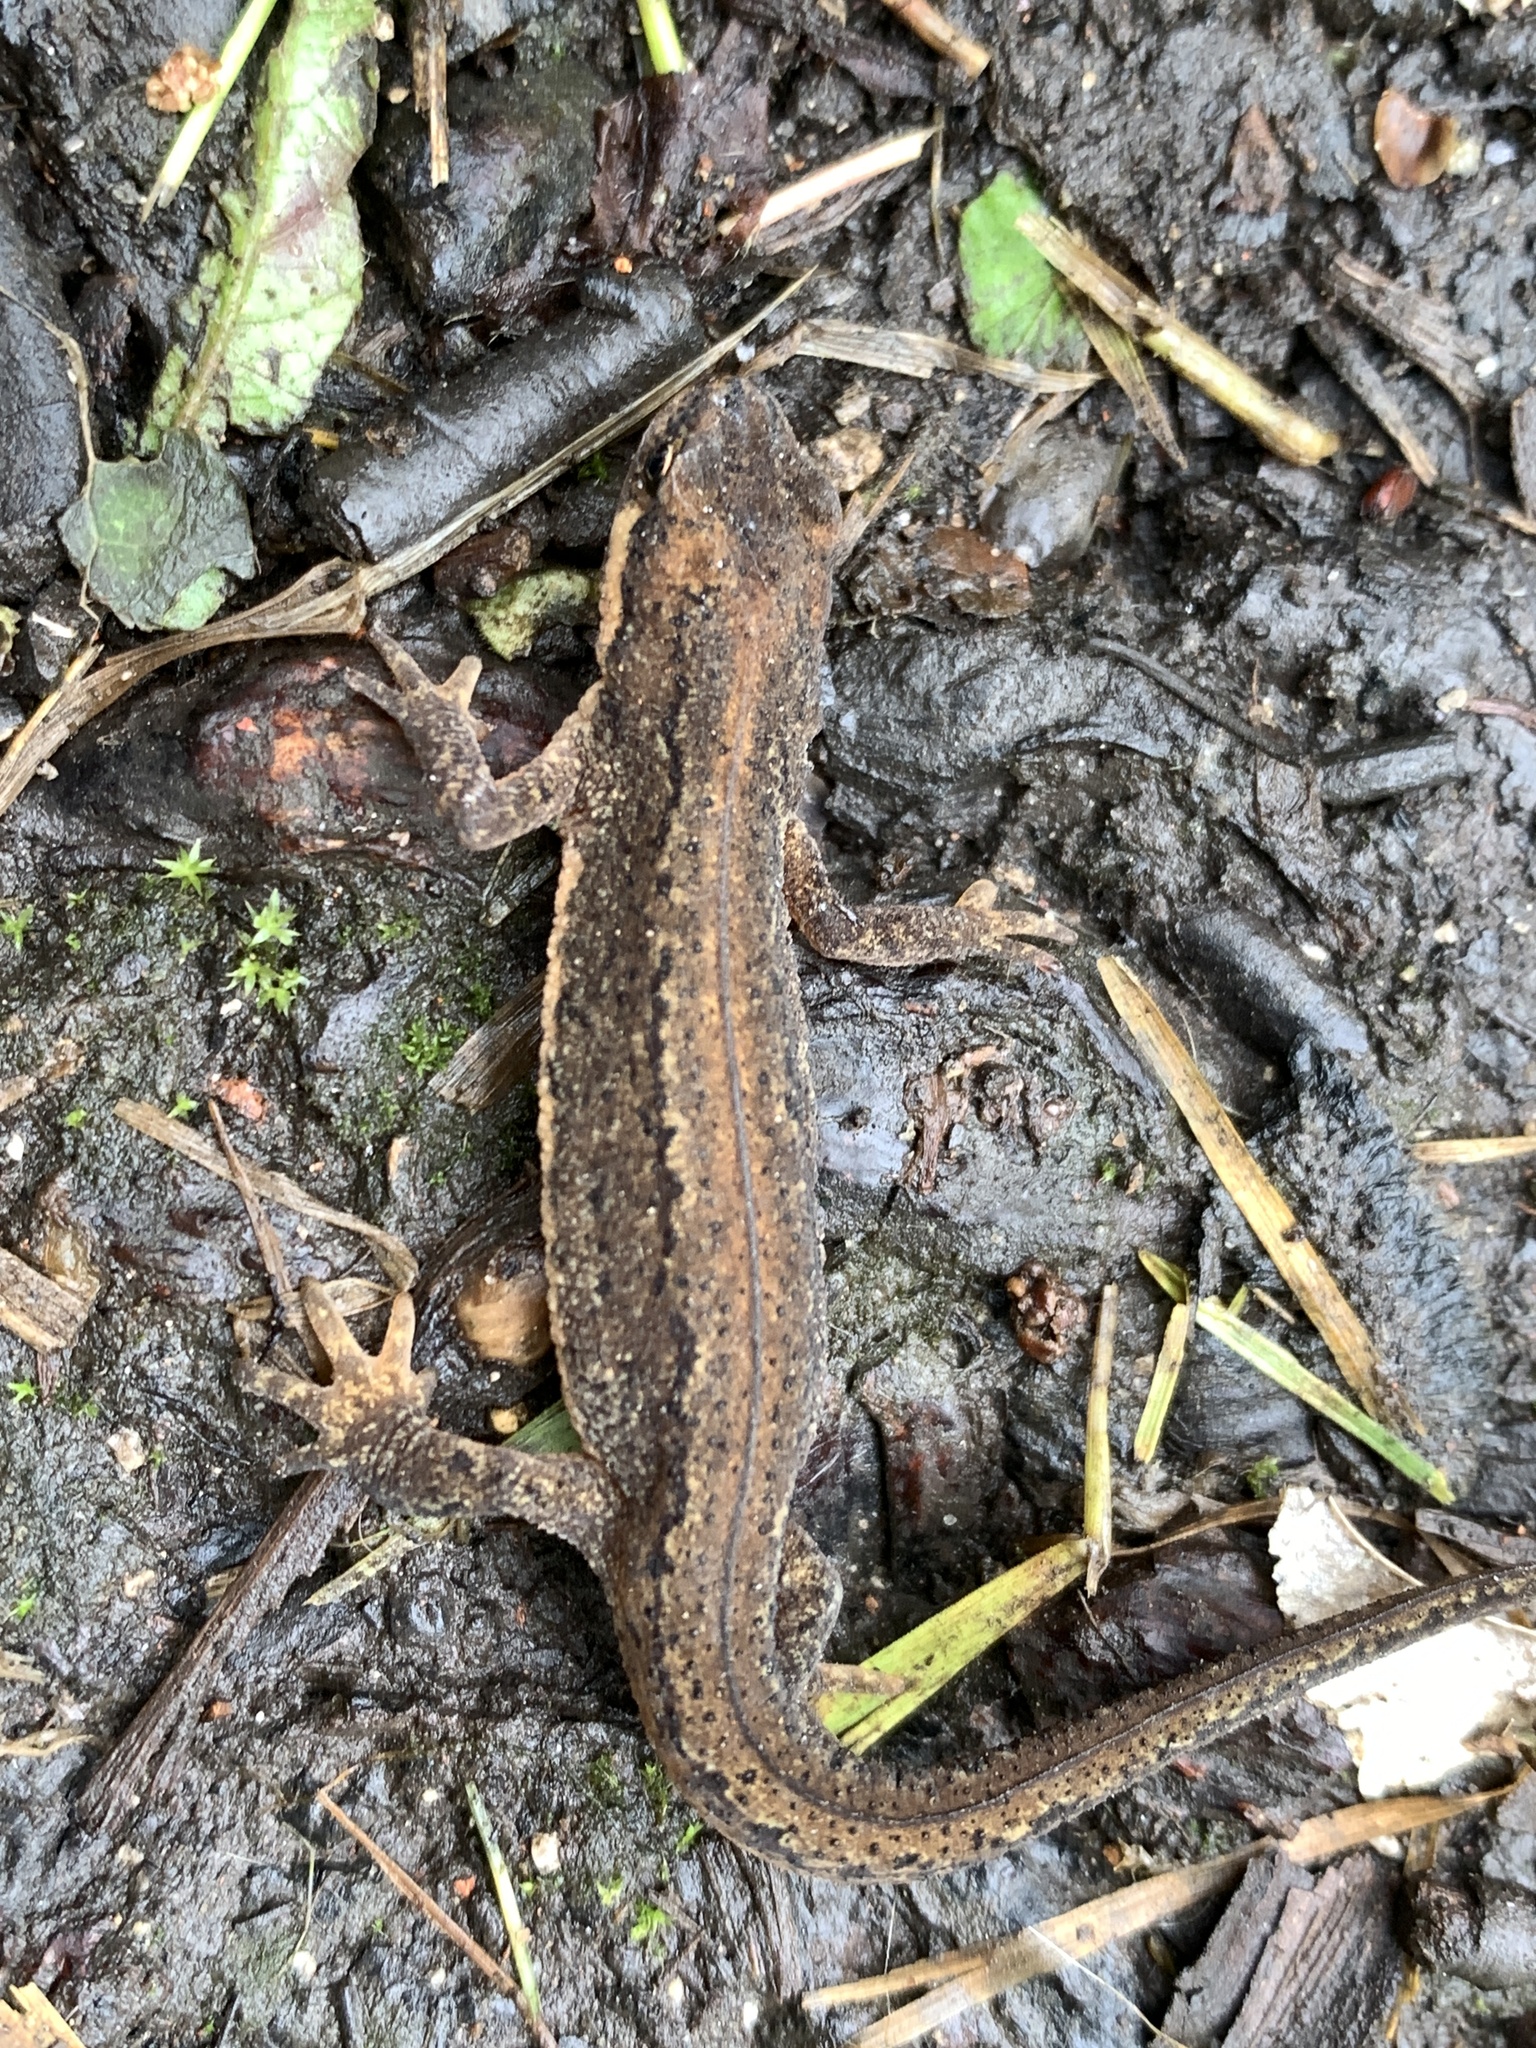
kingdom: Animalia
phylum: Chordata
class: Amphibia
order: Caudata
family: Salamandridae
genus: Lissotriton
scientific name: Lissotriton vulgaris
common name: Smooth newt
